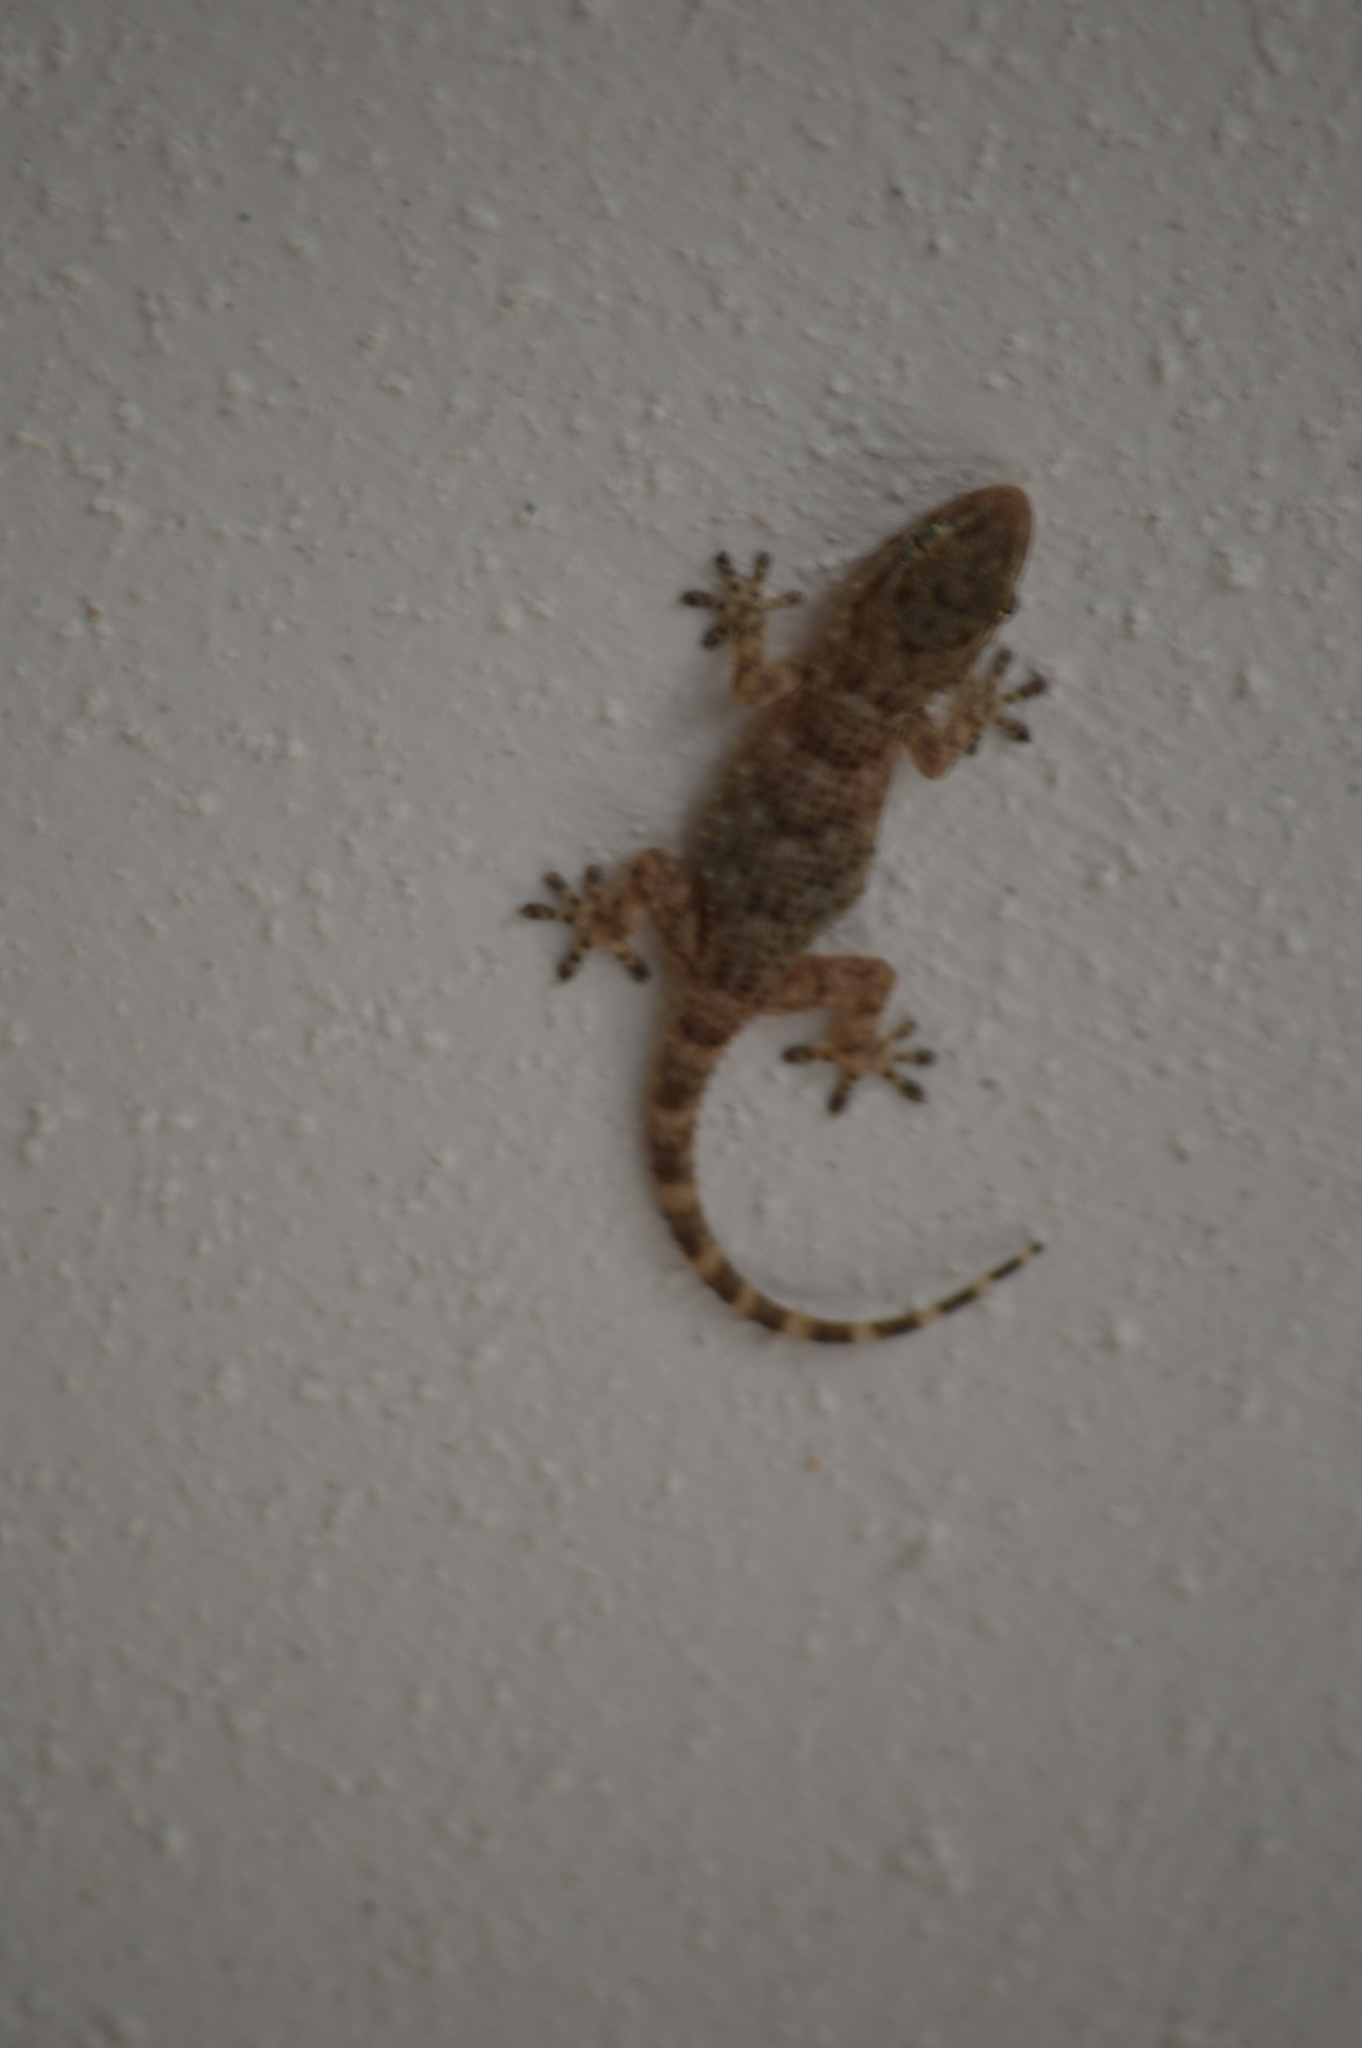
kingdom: Animalia
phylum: Chordata
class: Squamata
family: Phyllodactylidae
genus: Tarentola
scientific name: Tarentola mauritanica
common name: Moorish gecko
